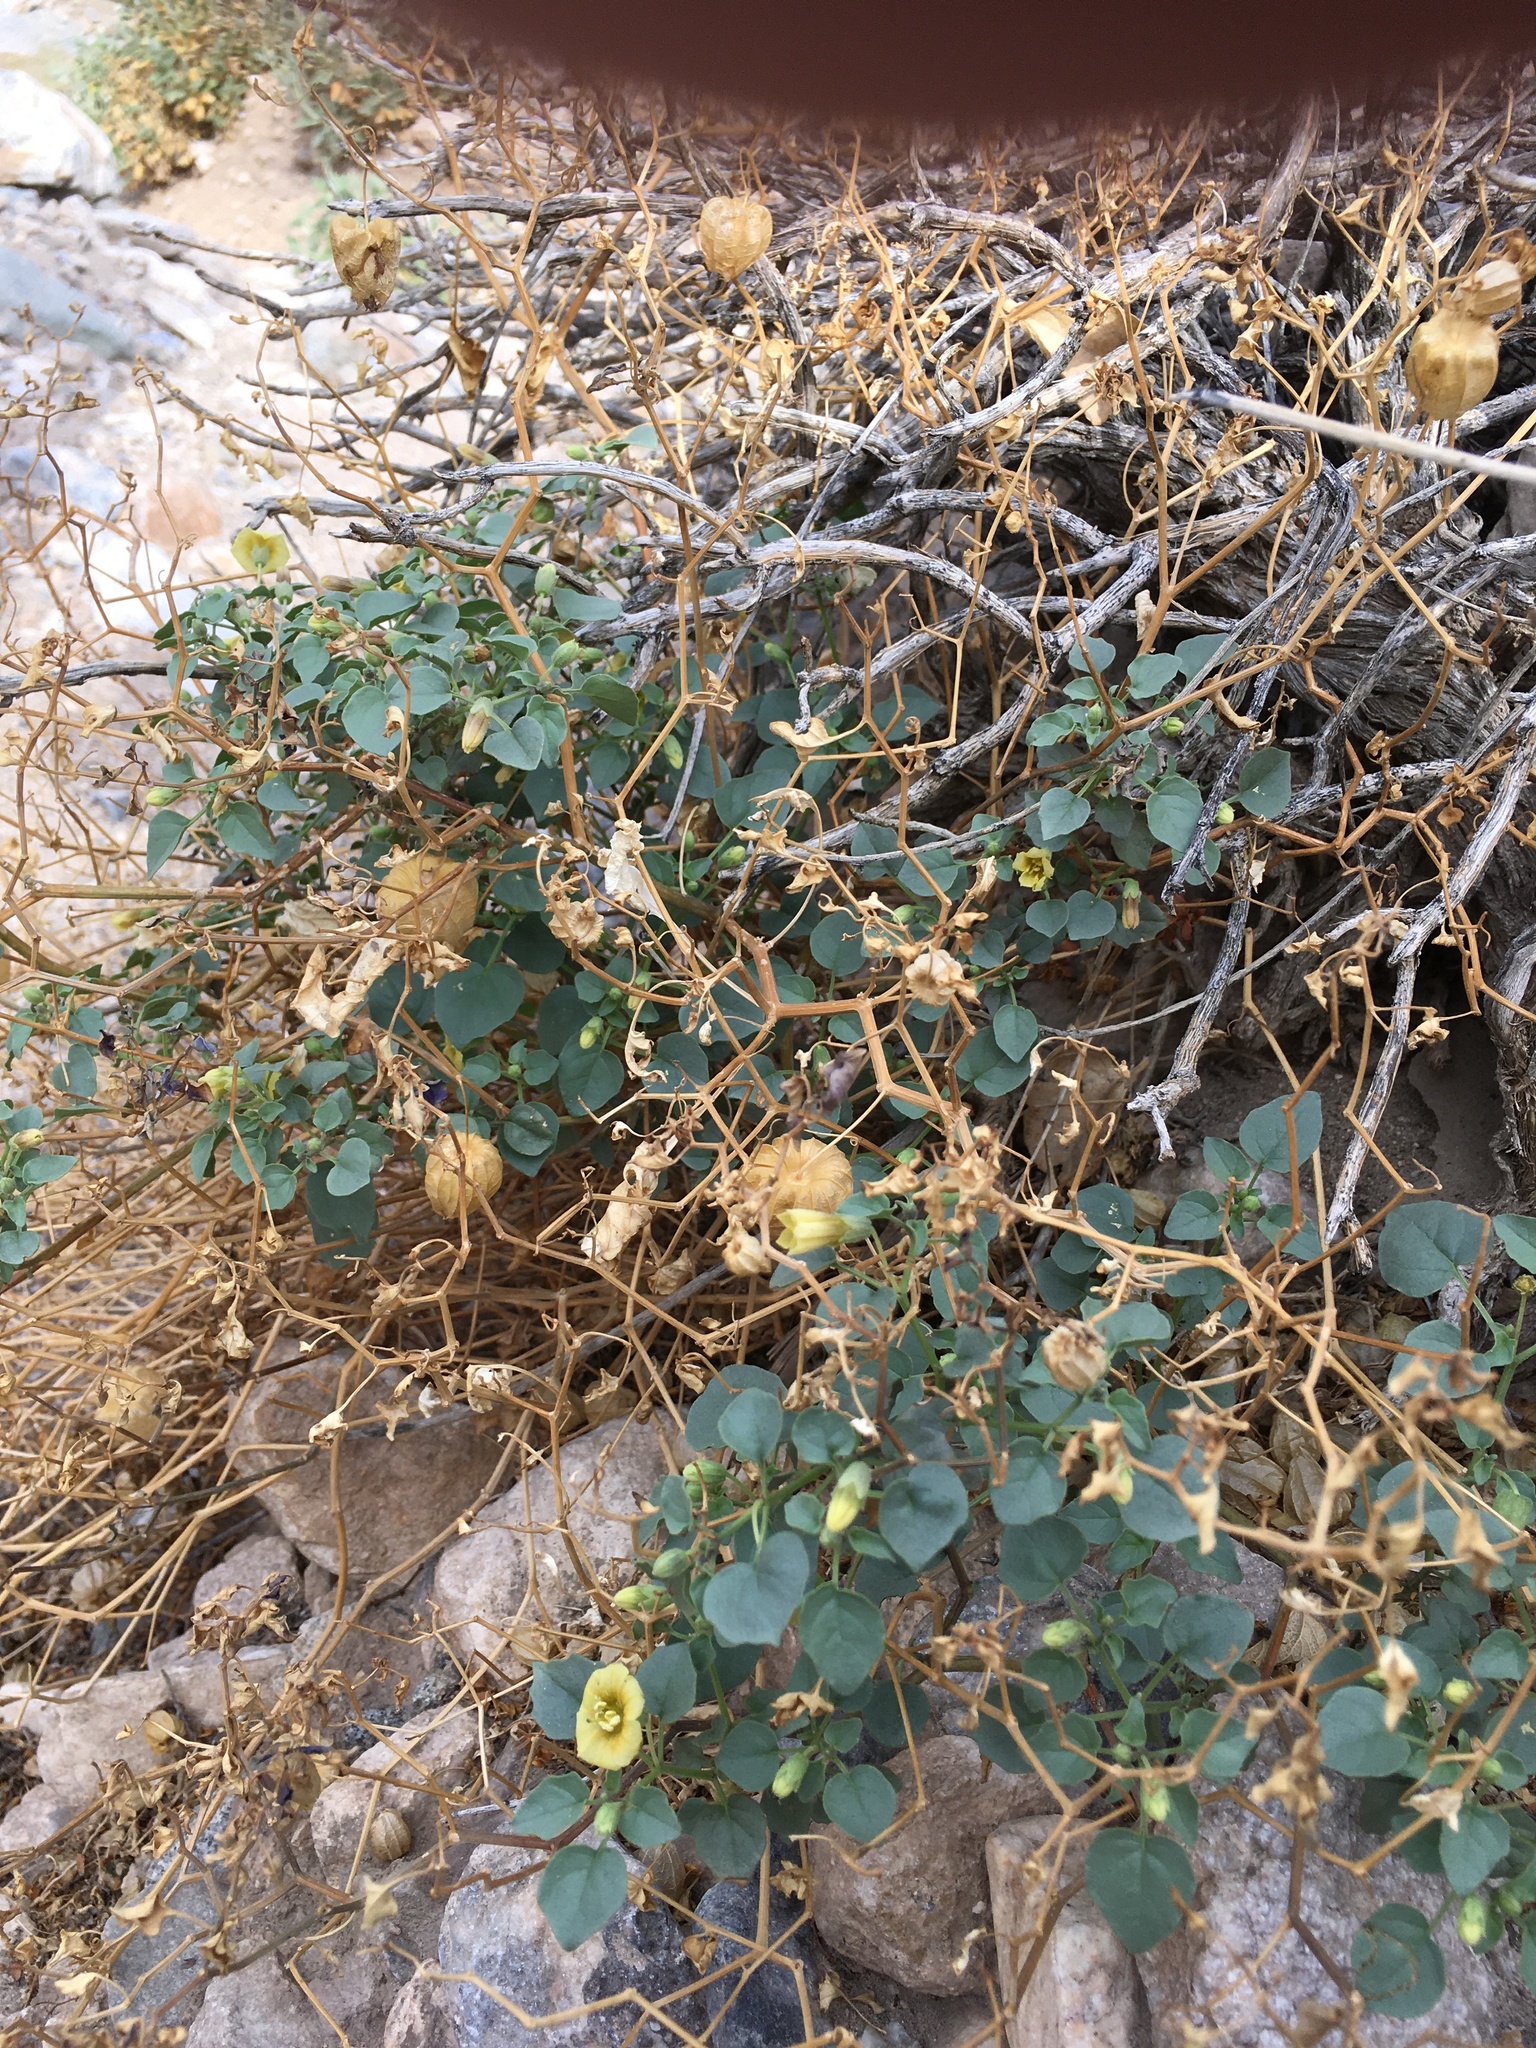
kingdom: Plantae
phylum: Tracheophyta
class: Magnoliopsida
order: Solanales
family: Solanaceae
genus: Physalis
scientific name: Physalis crassifolia
